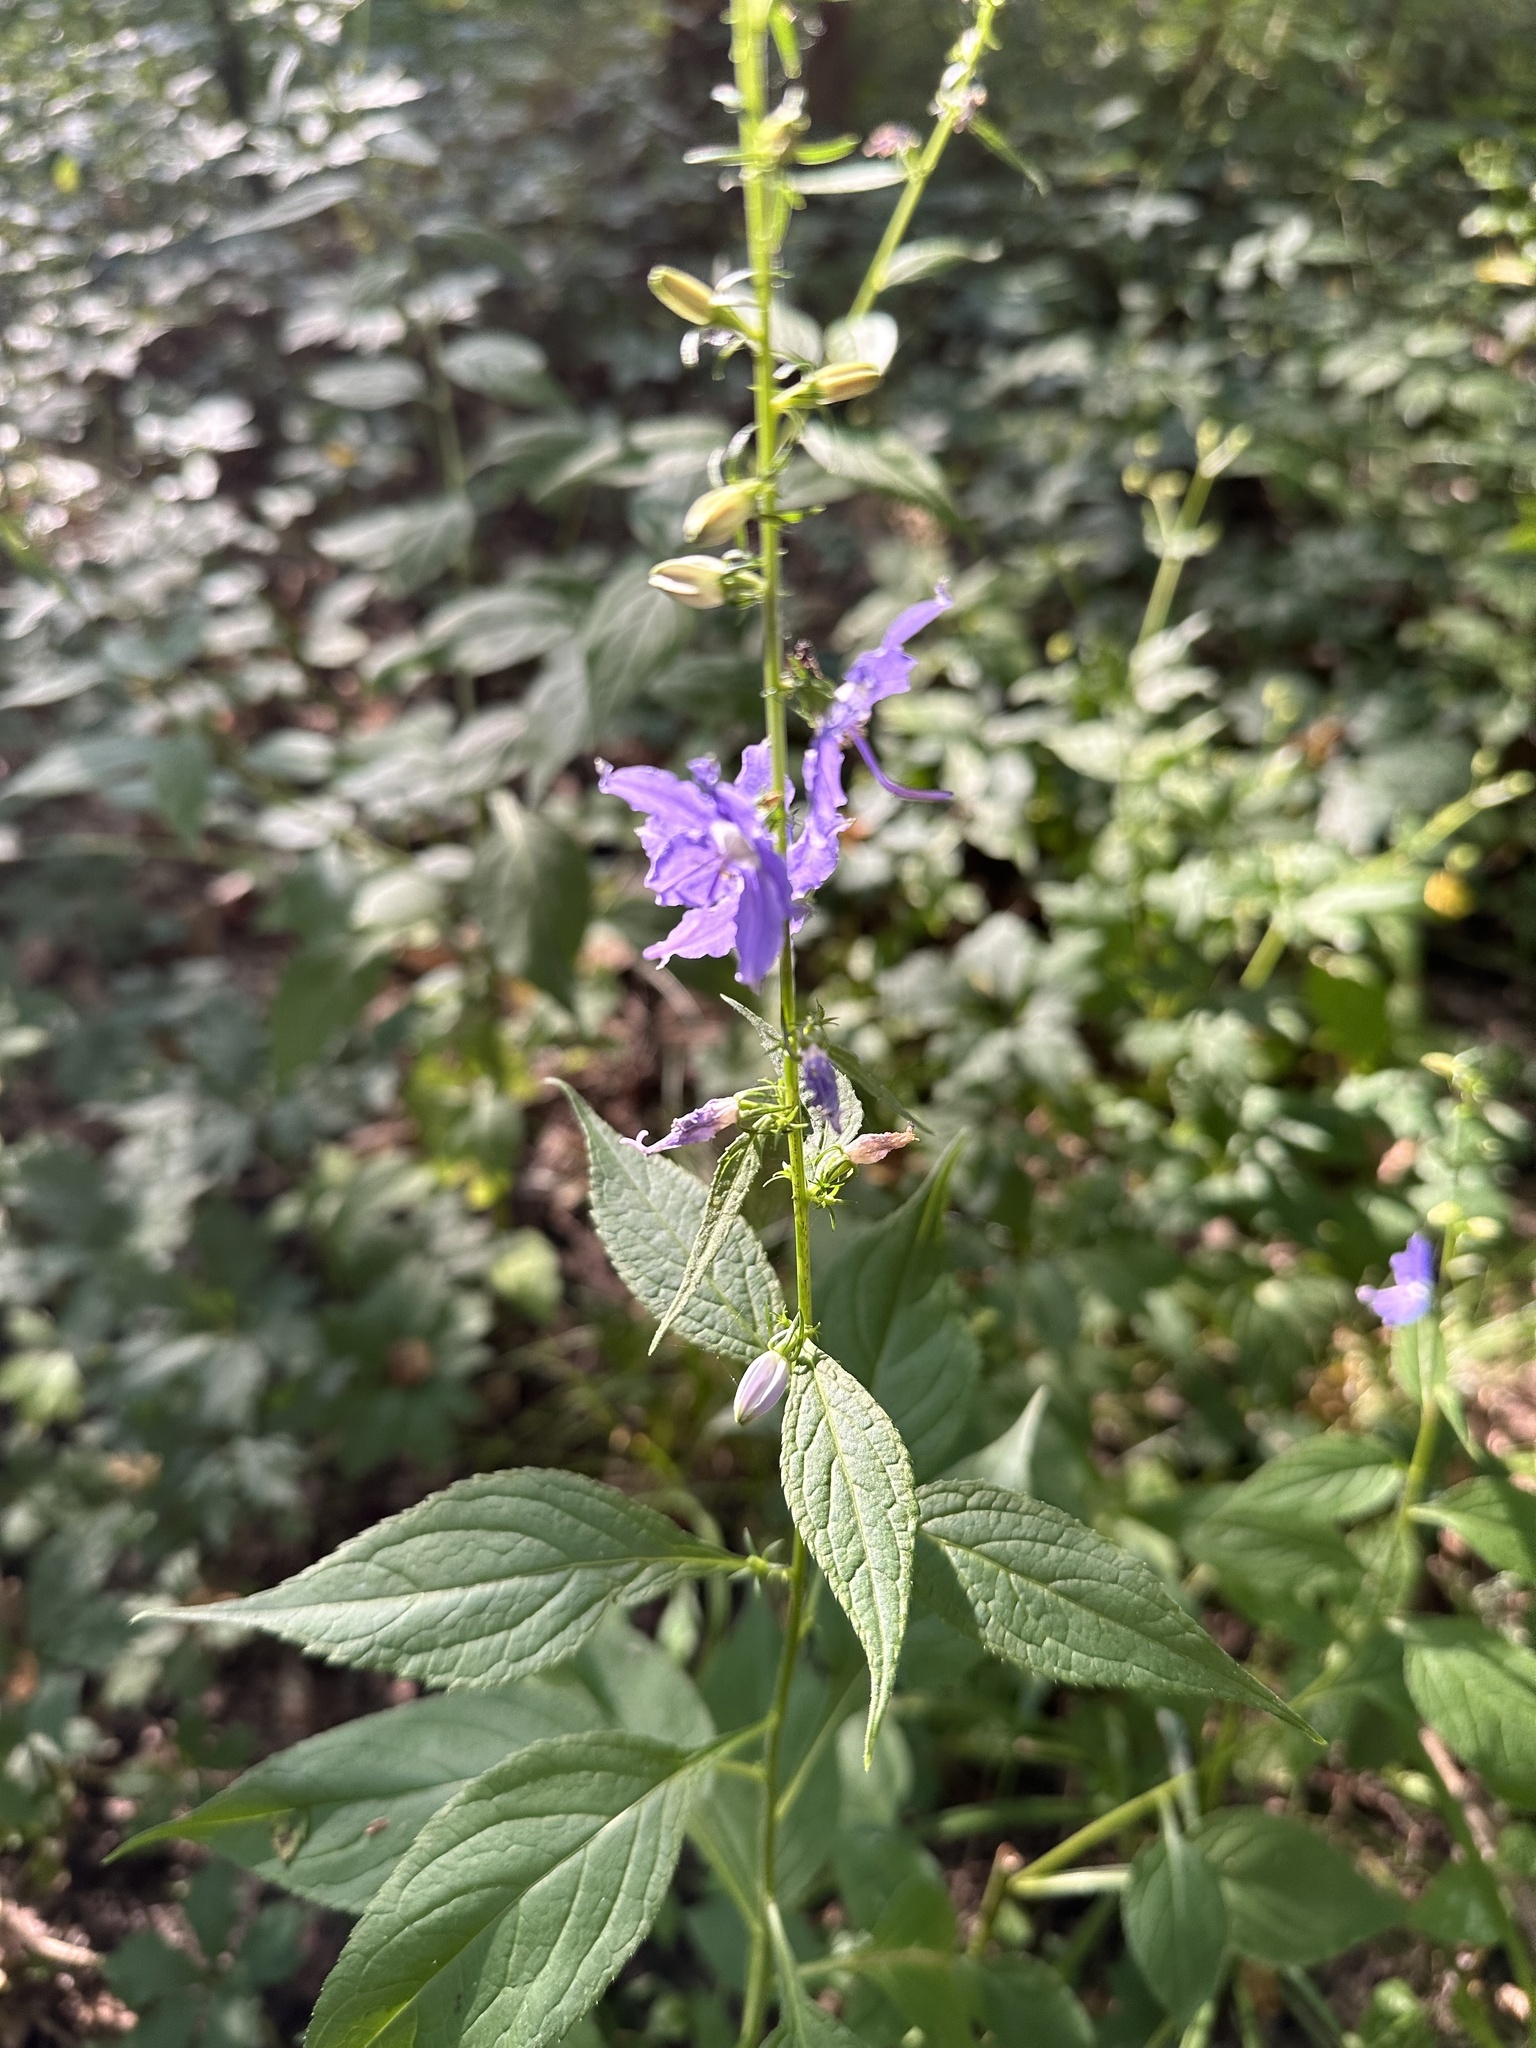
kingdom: Plantae
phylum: Tracheophyta
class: Magnoliopsida
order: Asterales
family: Campanulaceae
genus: Campanulastrum
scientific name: Campanulastrum americanum
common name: American bellflower
